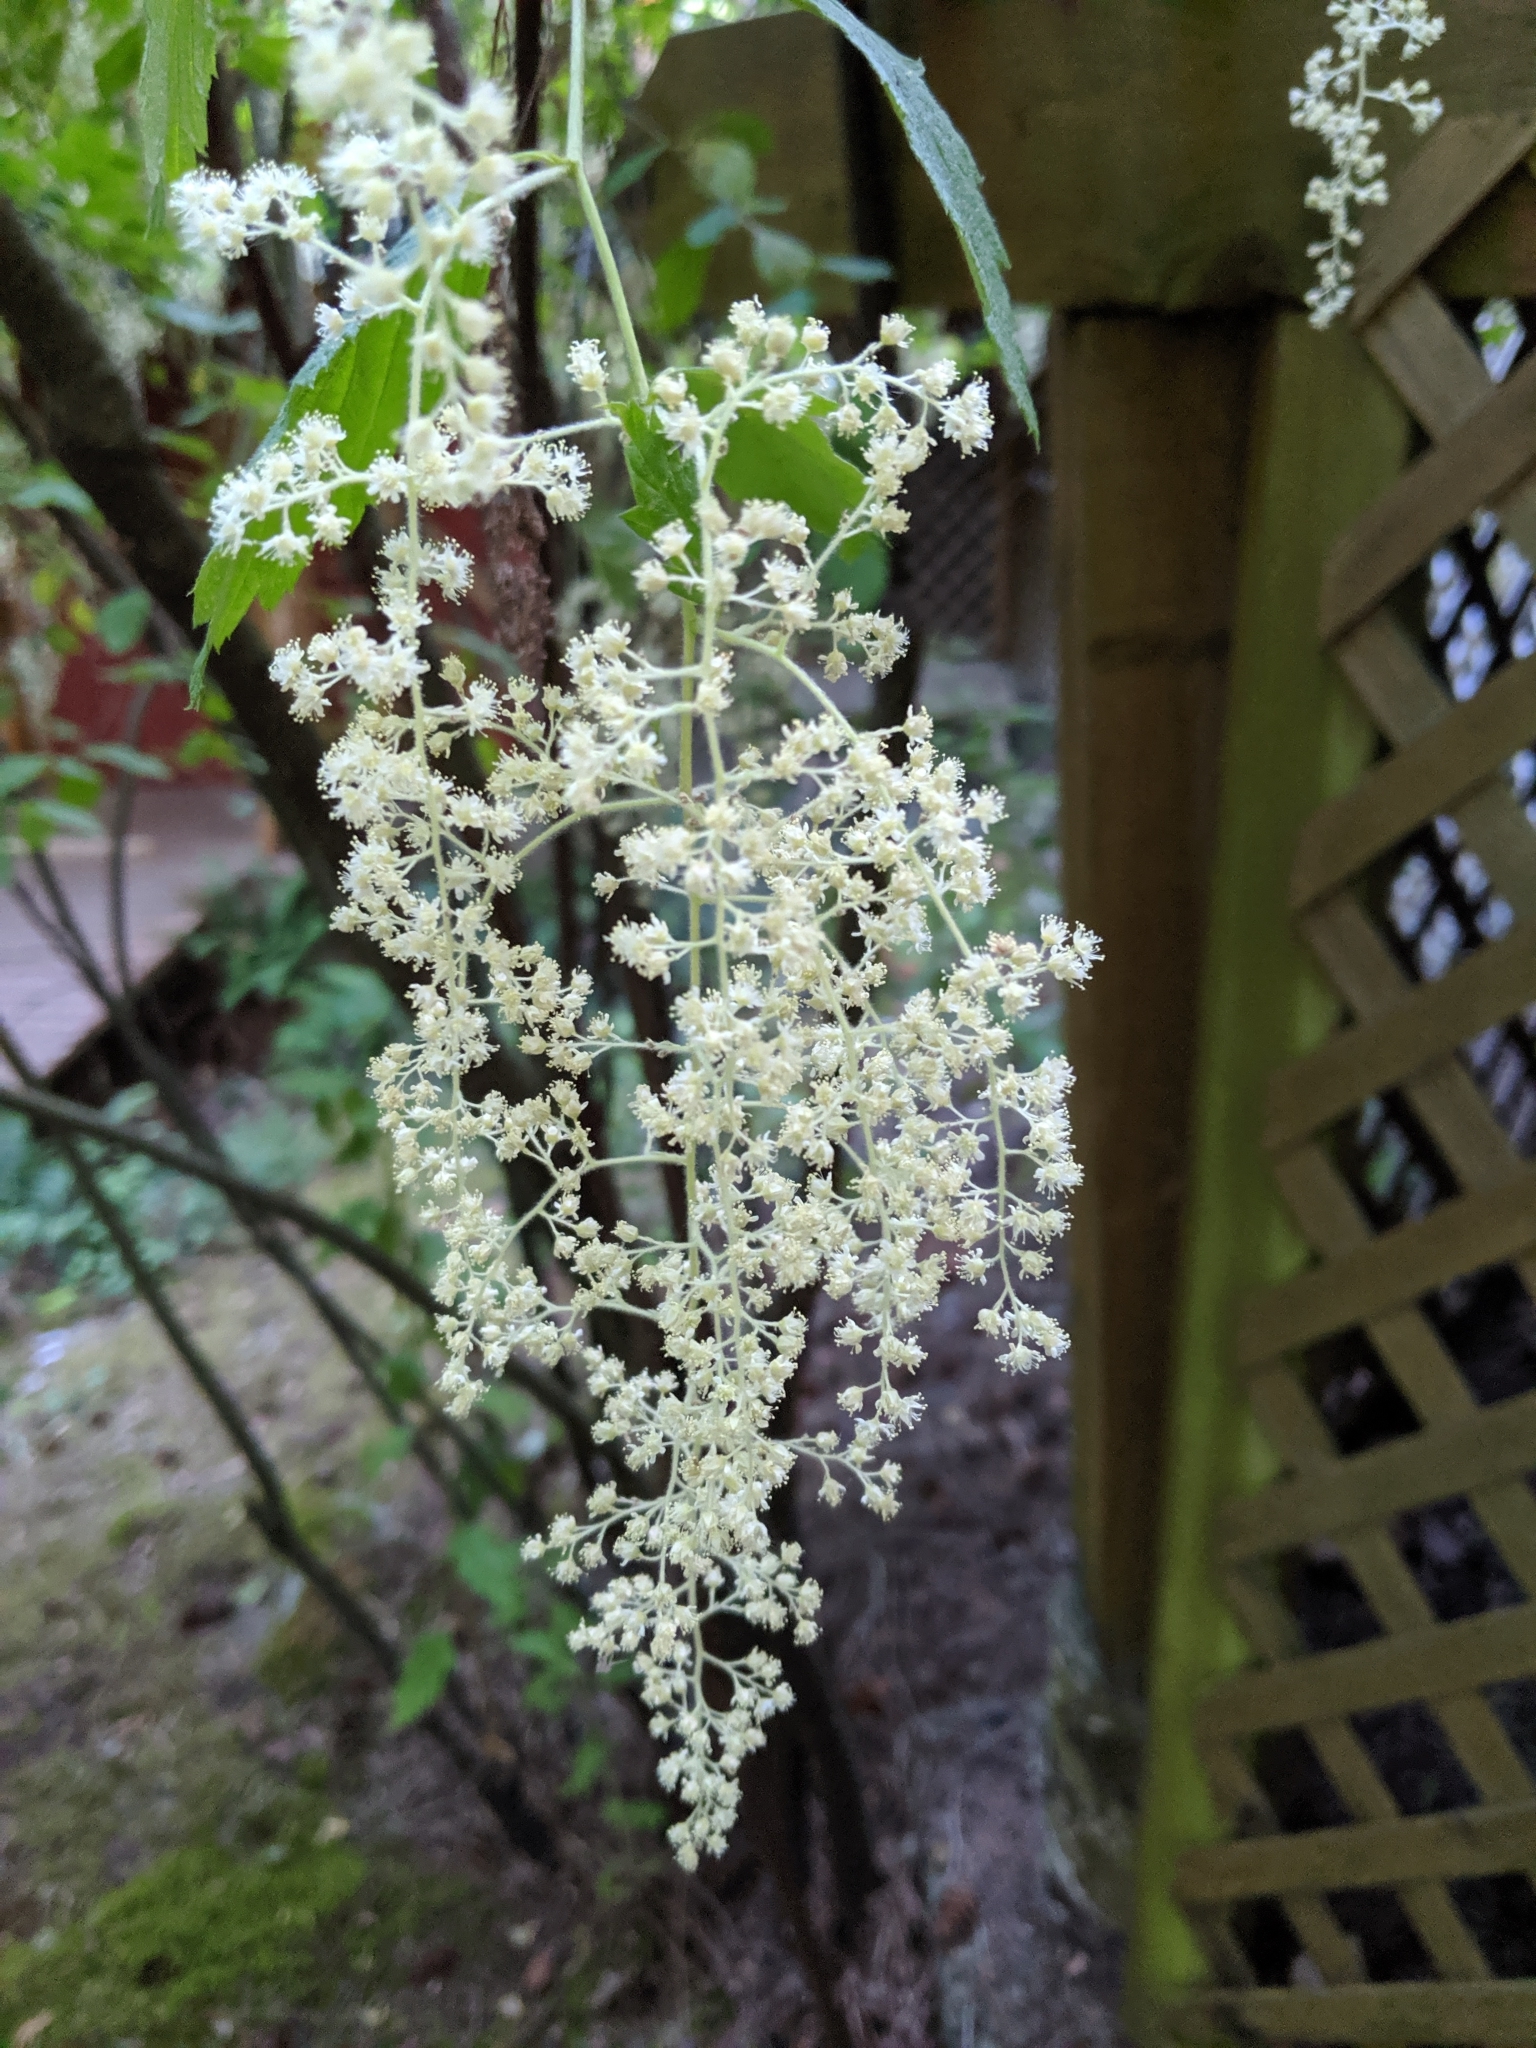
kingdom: Plantae
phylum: Tracheophyta
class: Magnoliopsida
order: Rosales
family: Rosaceae
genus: Holodiscus
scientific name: Holodiscus discolor
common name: Oceanspray
